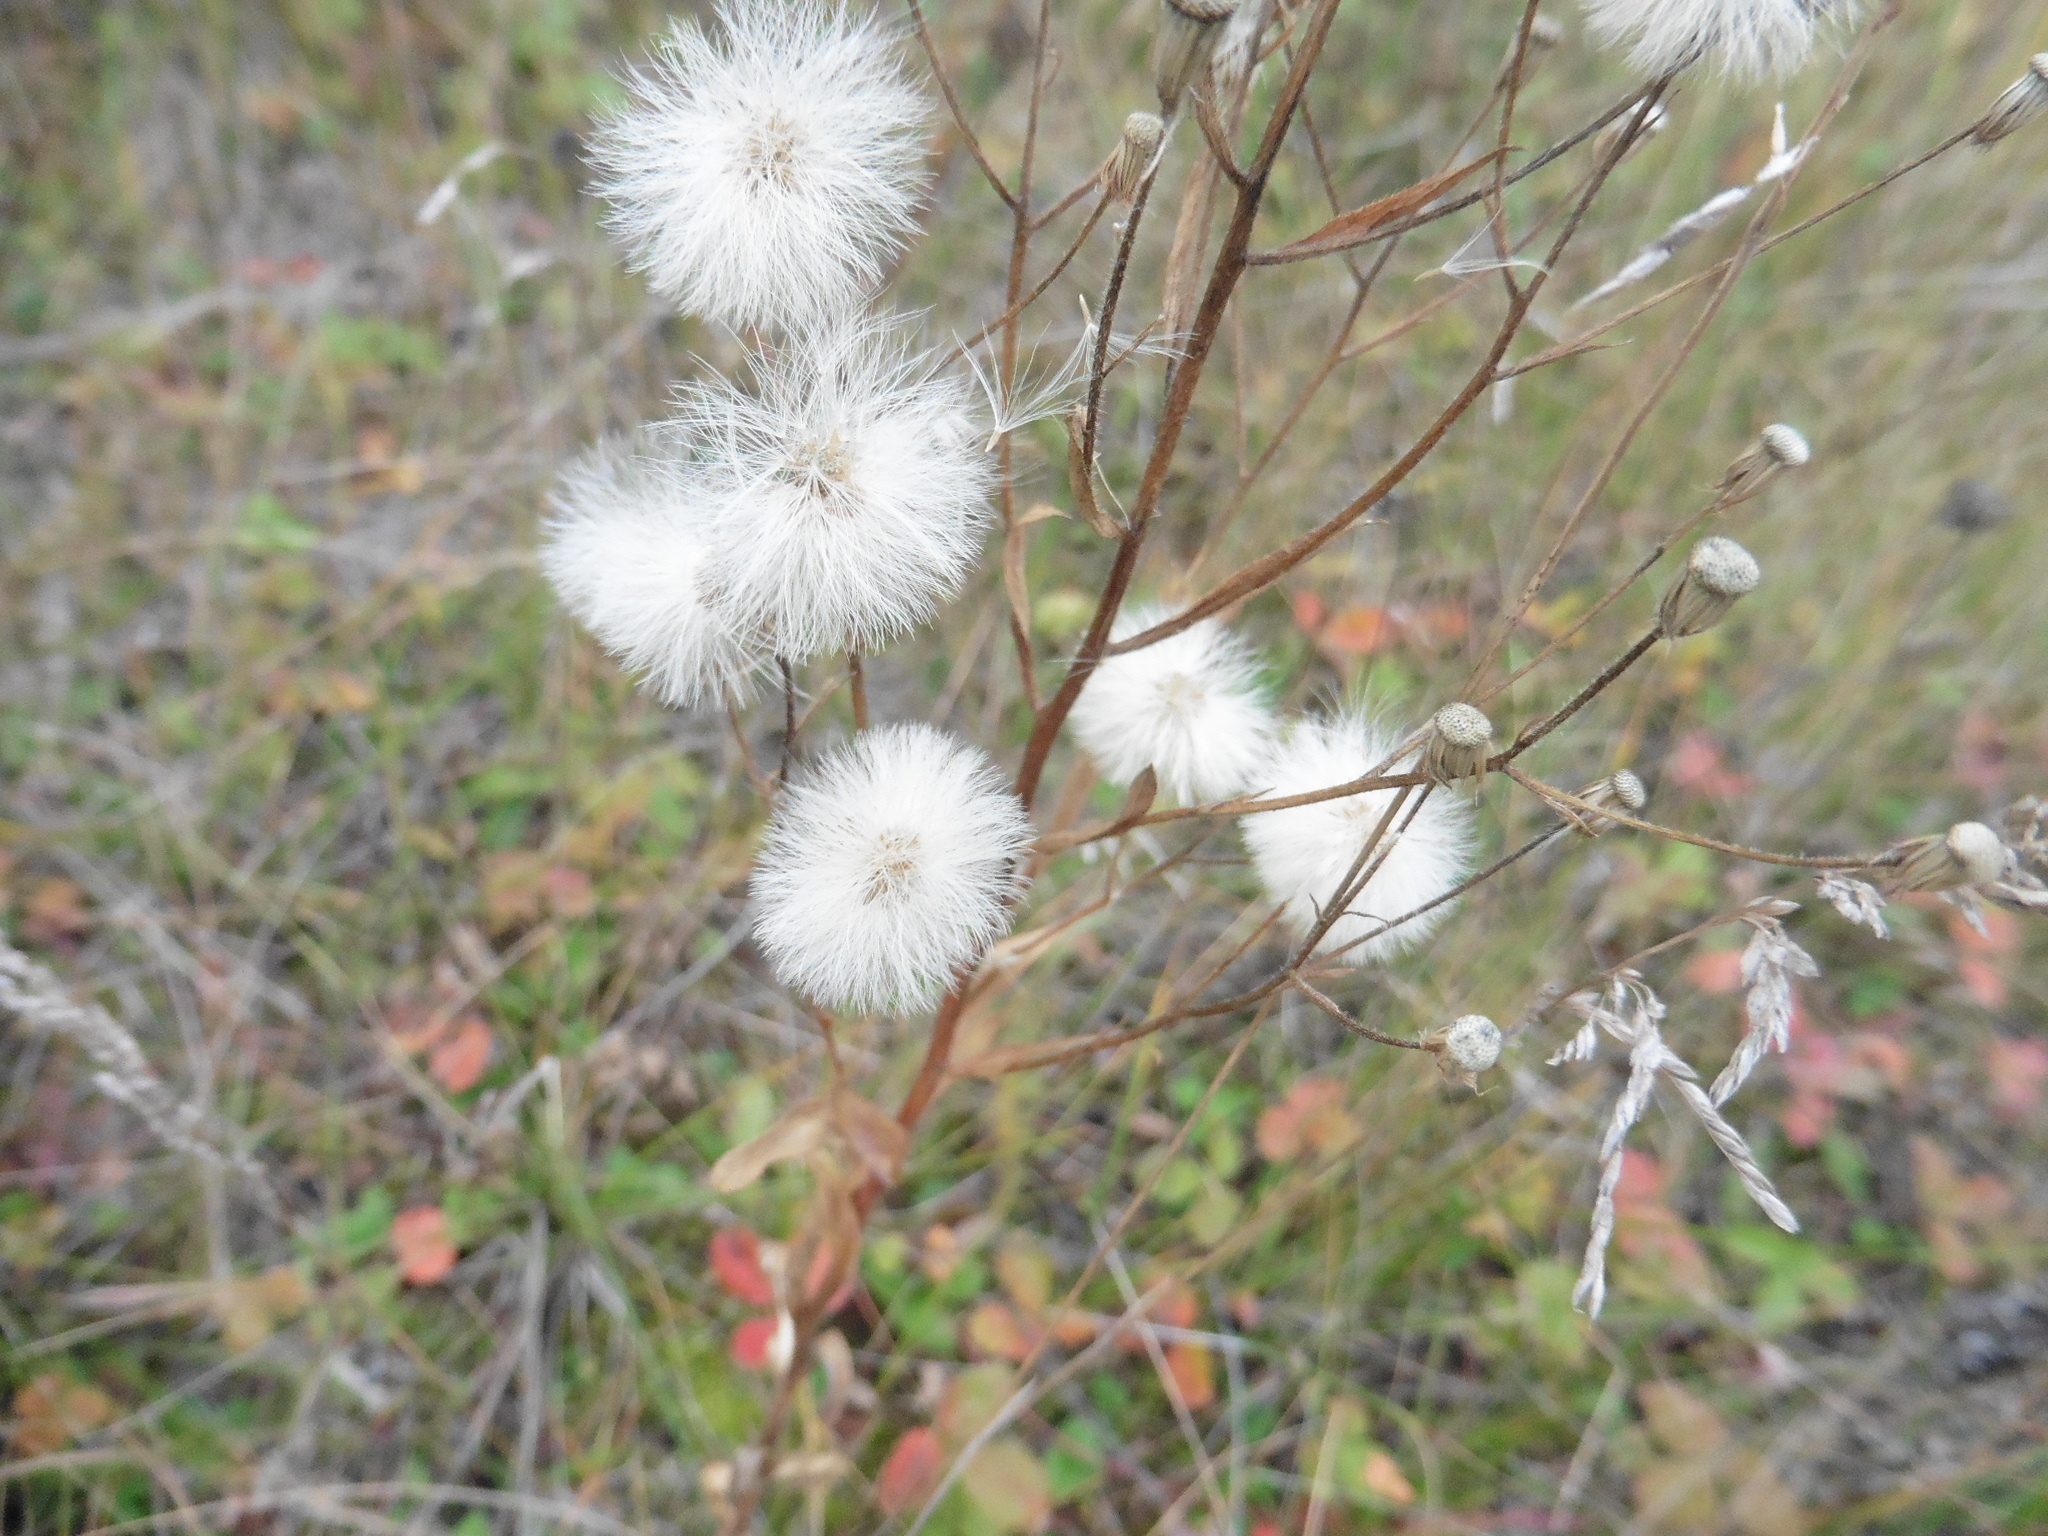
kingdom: Plantae
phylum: Tracheophyta
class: Magnoliopsida
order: Asterales
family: Asteraceae
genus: Erigeron
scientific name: Erigeron acris
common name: Blue fleabane
